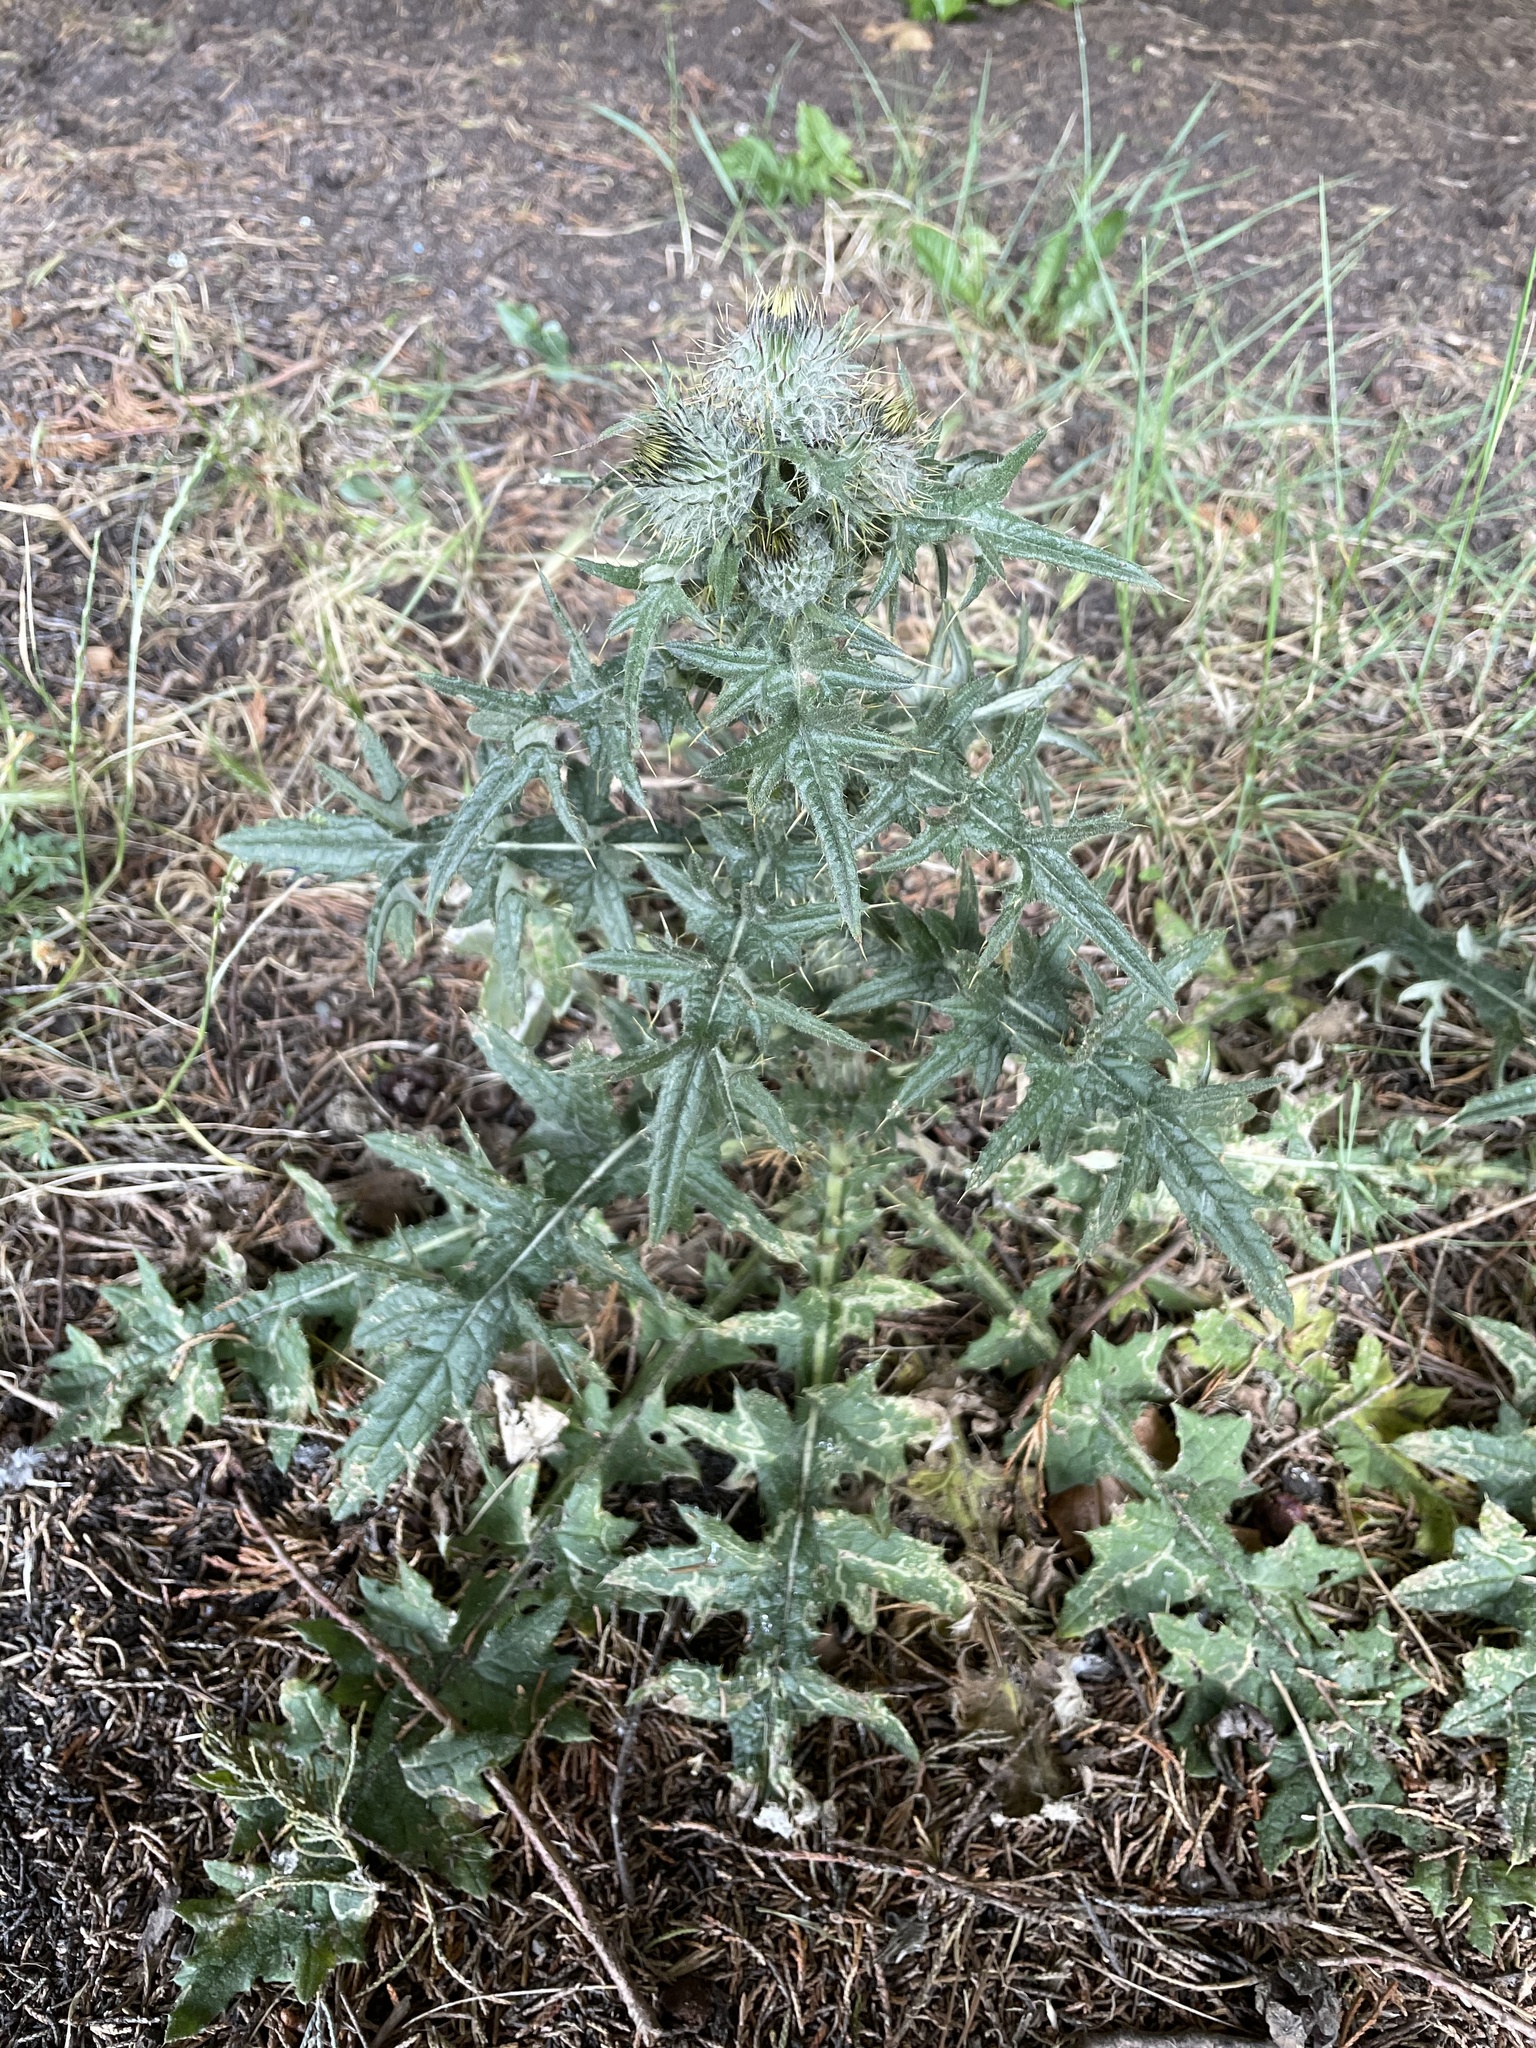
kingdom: Plantae
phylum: Tracheophyta
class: Magnoliopsida
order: Asterales
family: Asteraceae
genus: Cirsium
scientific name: Cirsium vulgare
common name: Bull thistle
